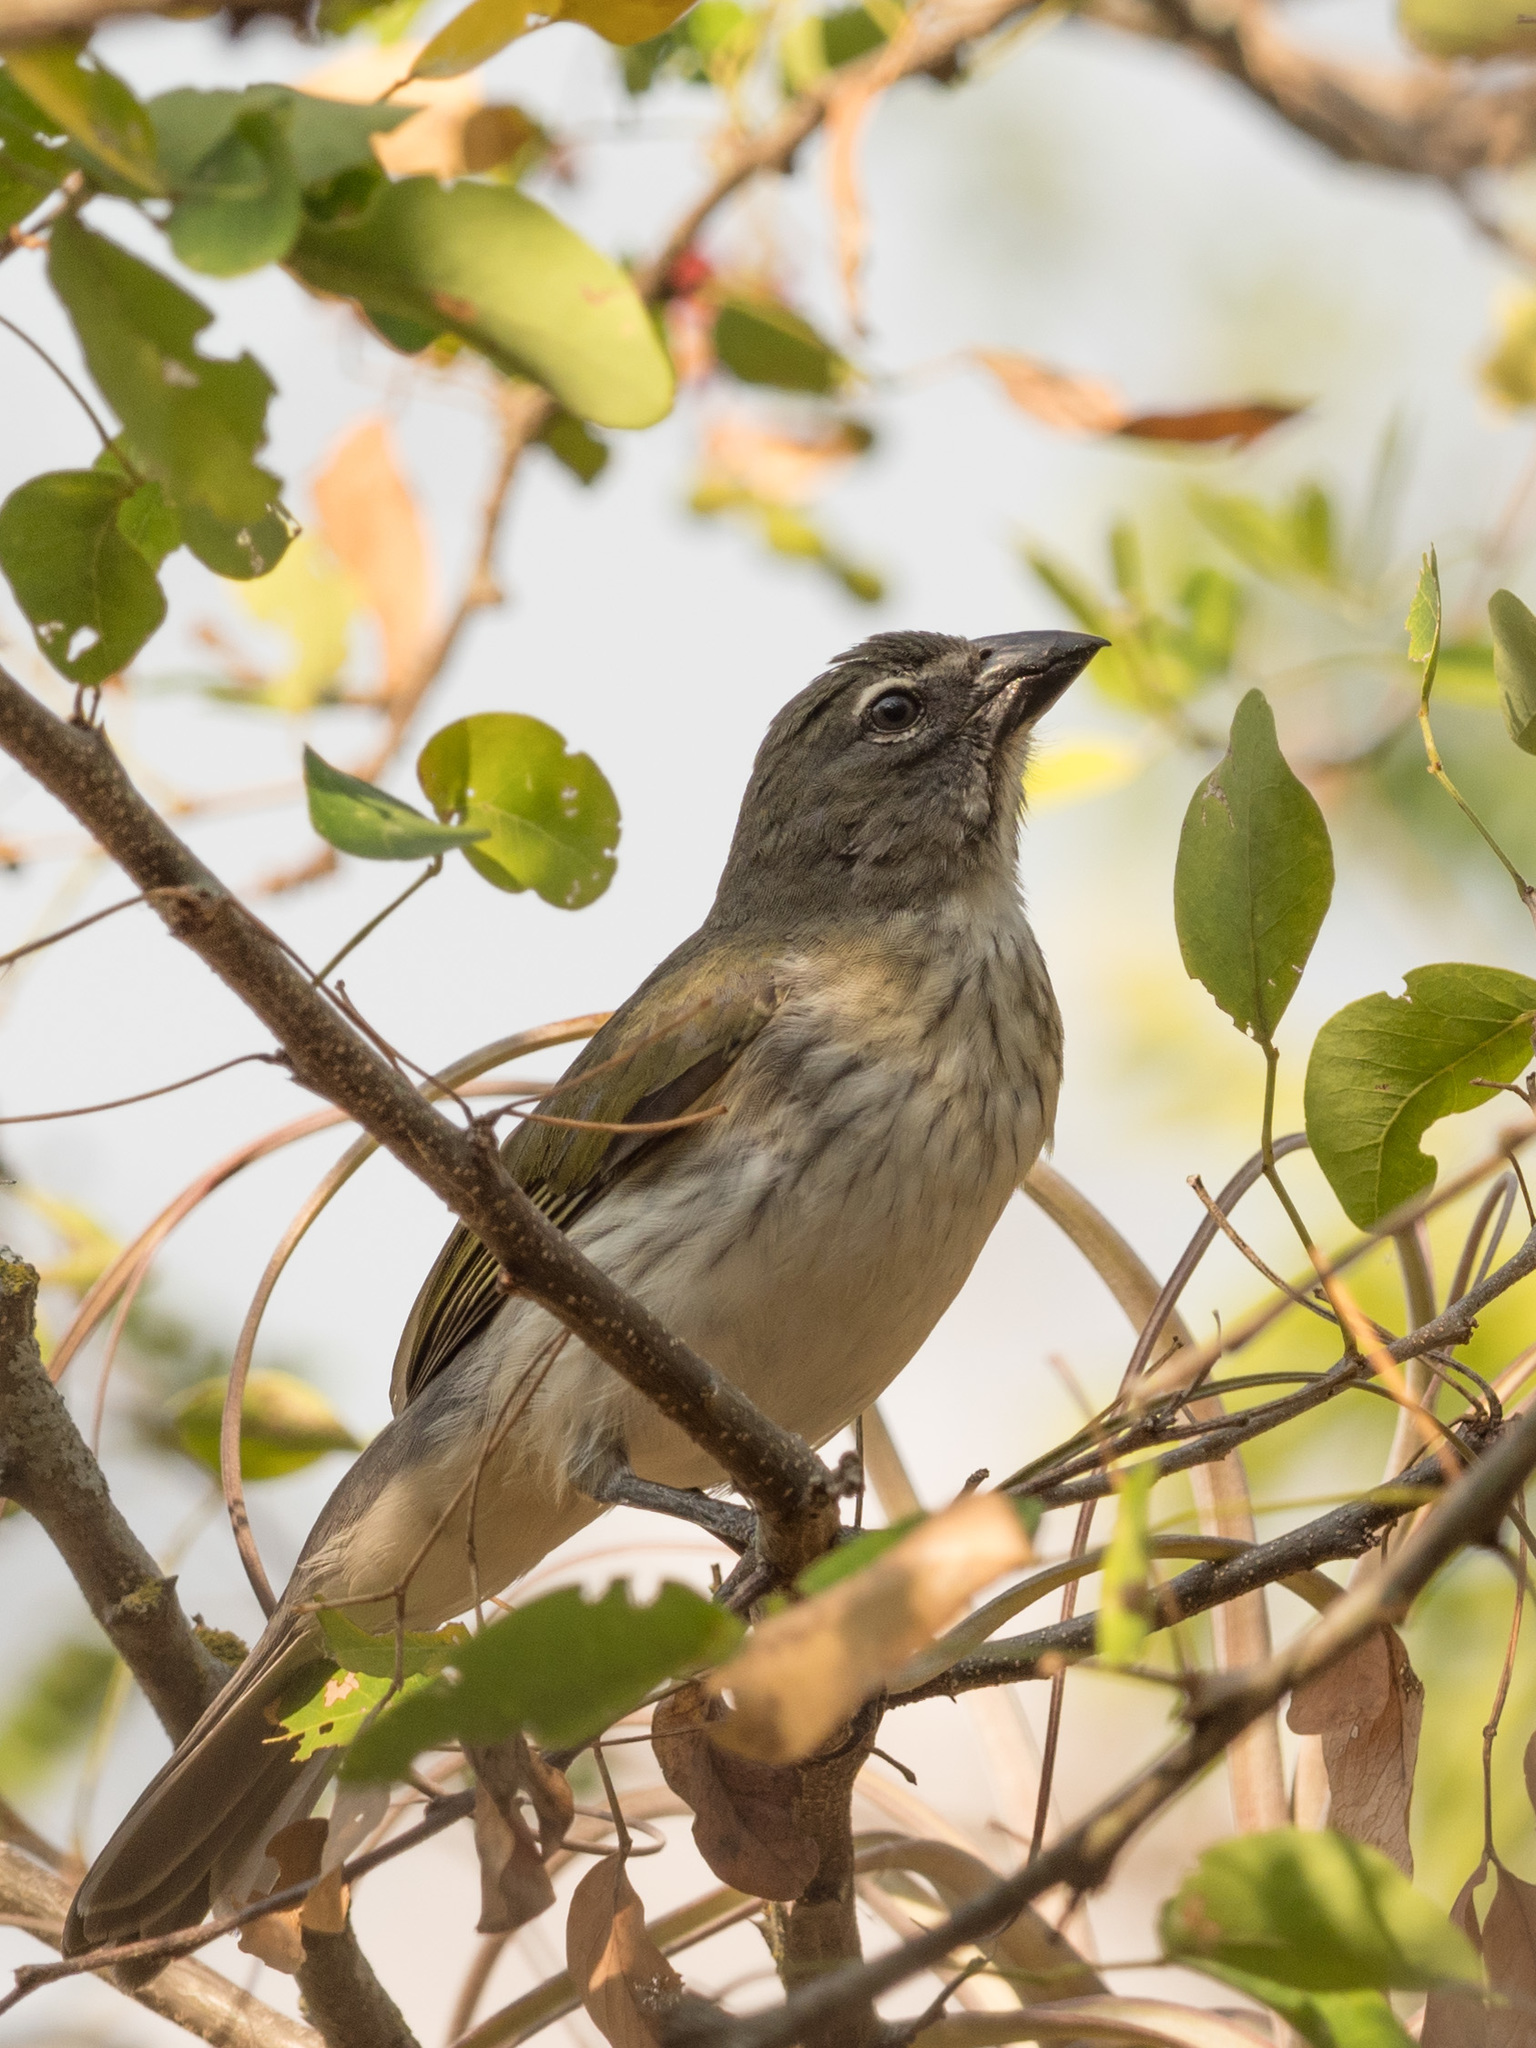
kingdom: Animalia
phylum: Chordata
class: Aves
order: Passeriformes
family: Thraupidae
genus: Saltator
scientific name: Saltator striatipectus
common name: Streaked saltator
